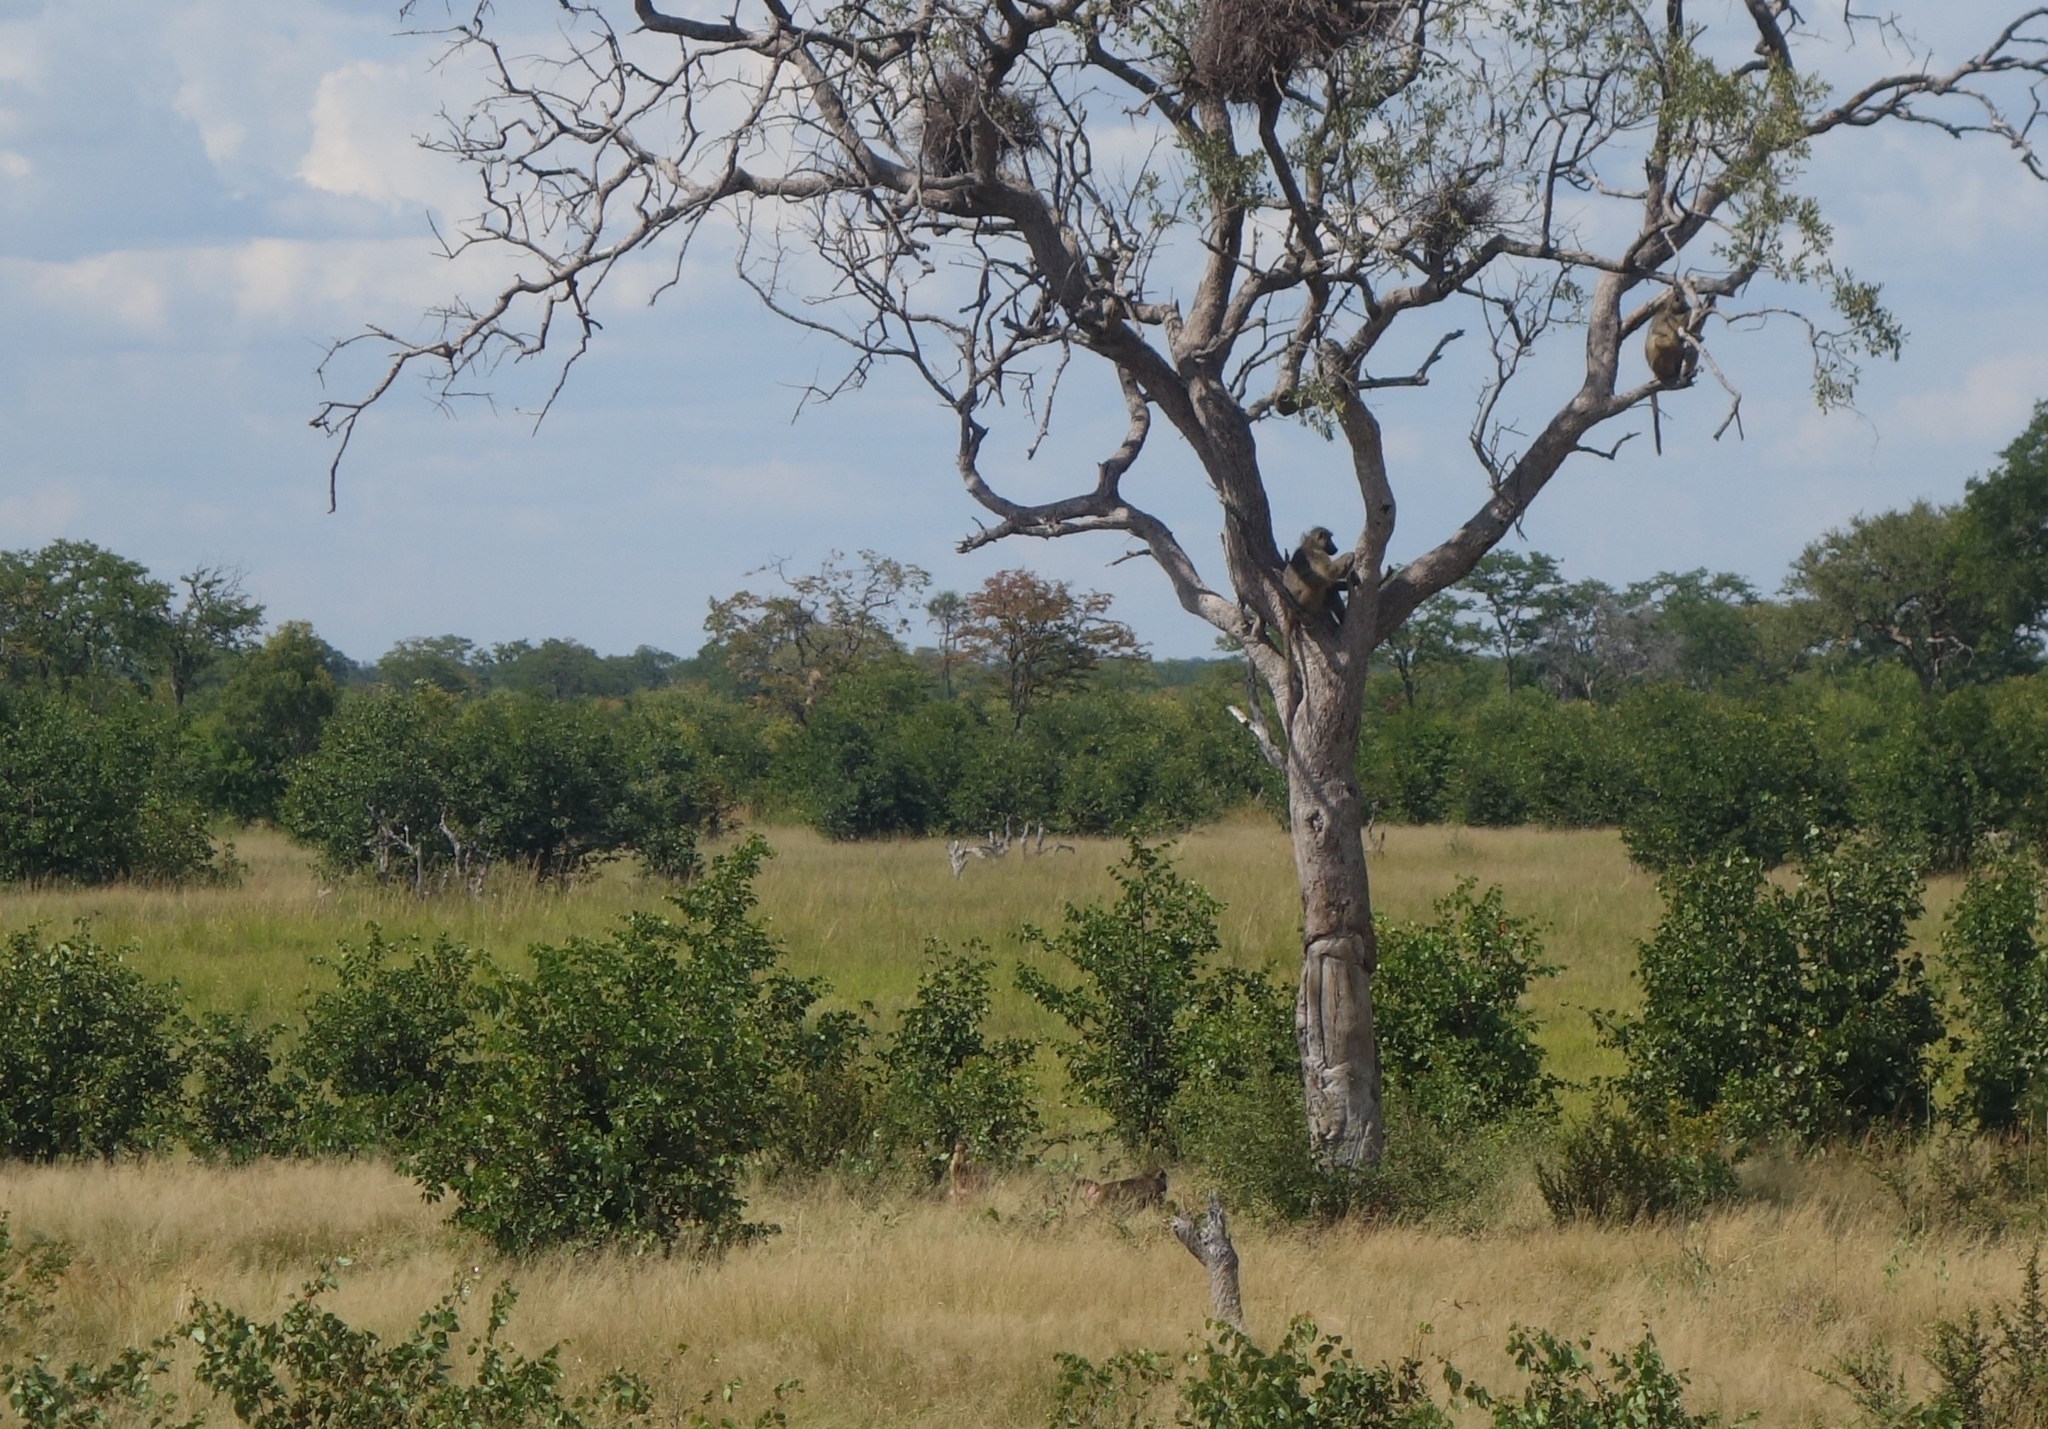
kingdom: Animalia
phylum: Chordata
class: Mammalia
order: Primates
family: Cercopithecidae
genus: Papio
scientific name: Papio ursinus
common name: Chacma baboon
